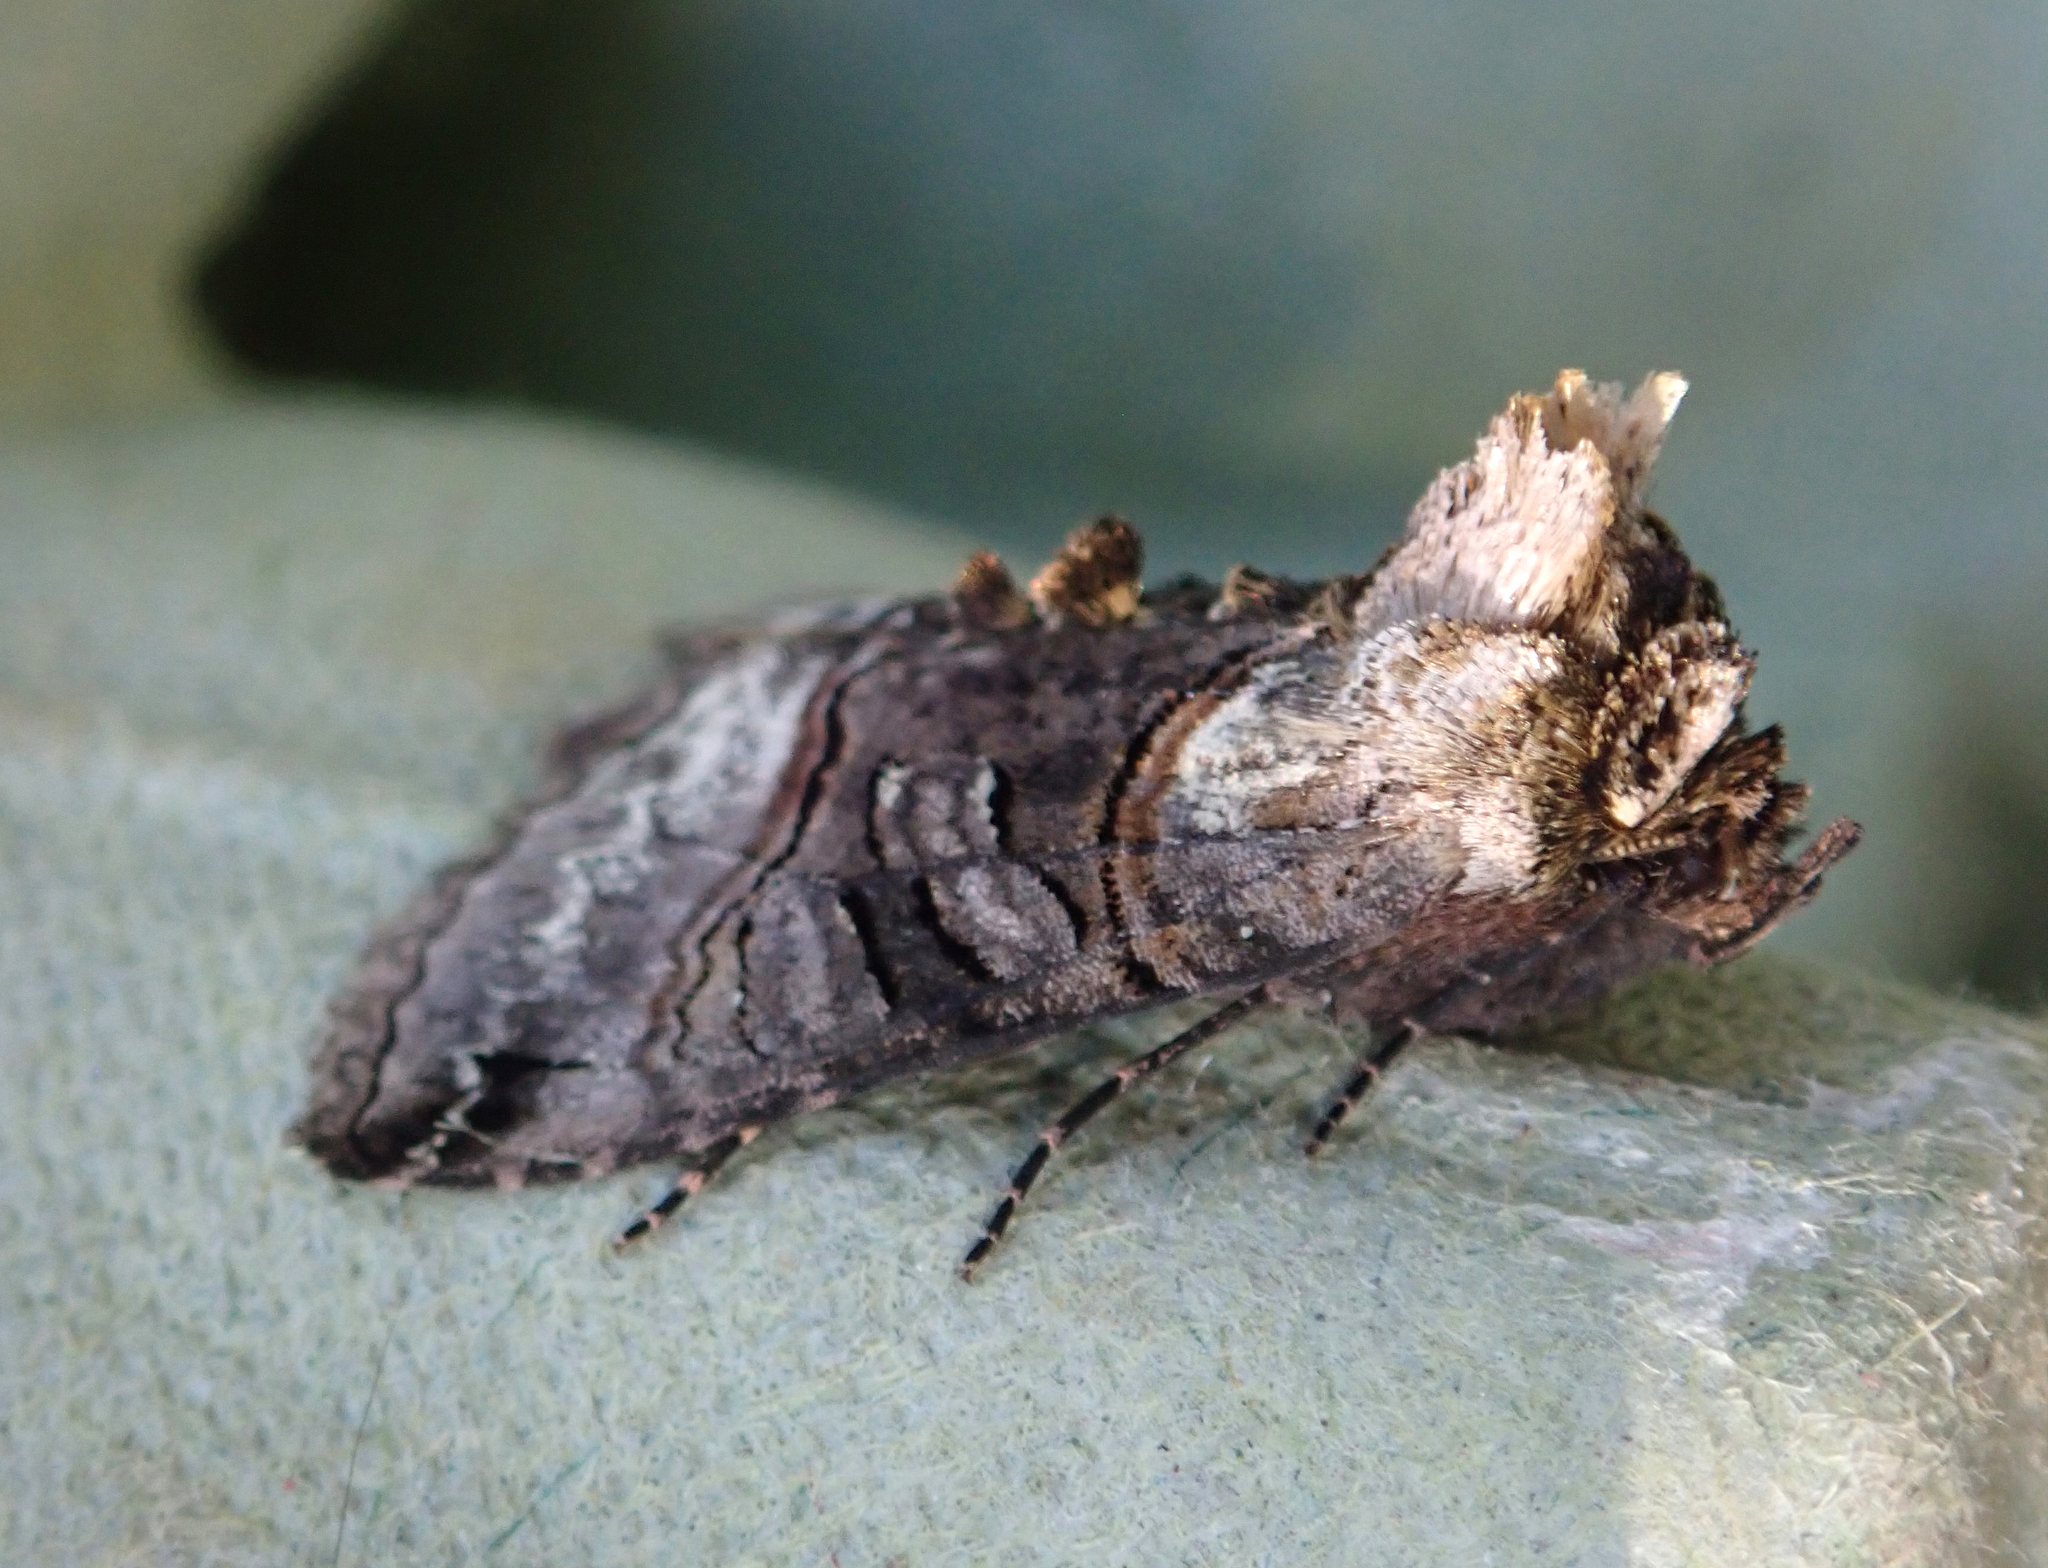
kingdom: Animalia
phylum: Arthropoda
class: Insecta
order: Lepidoptera
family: Noctuidae
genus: Abrostola
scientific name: Abrostola tripartita
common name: Spectacle
